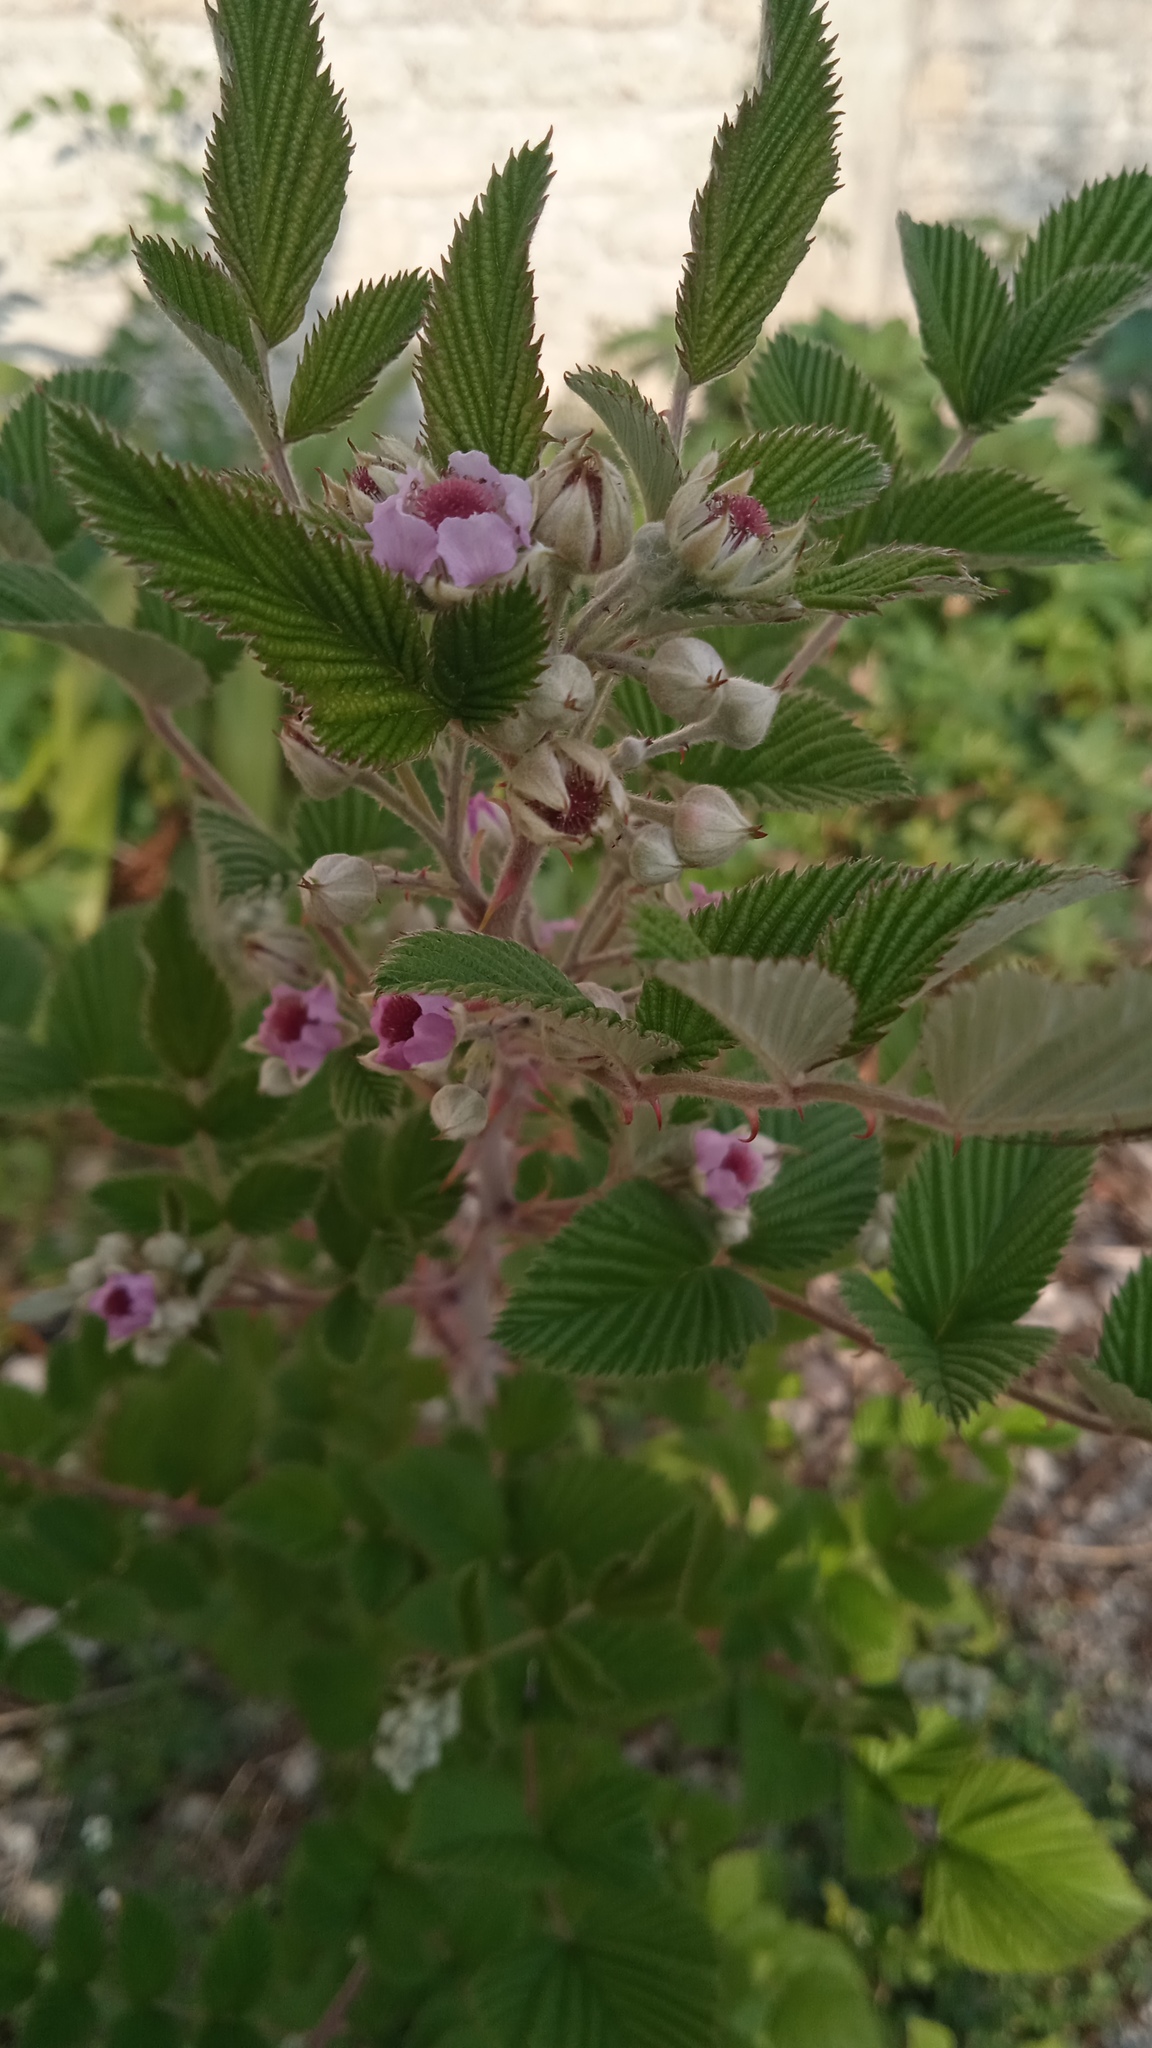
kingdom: Plantae
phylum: Tracheophyta
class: Magnoliopsida
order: Rosales
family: Rosaceae
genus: Rubus
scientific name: Rubus niveus
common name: Snowpeaks raspberry
